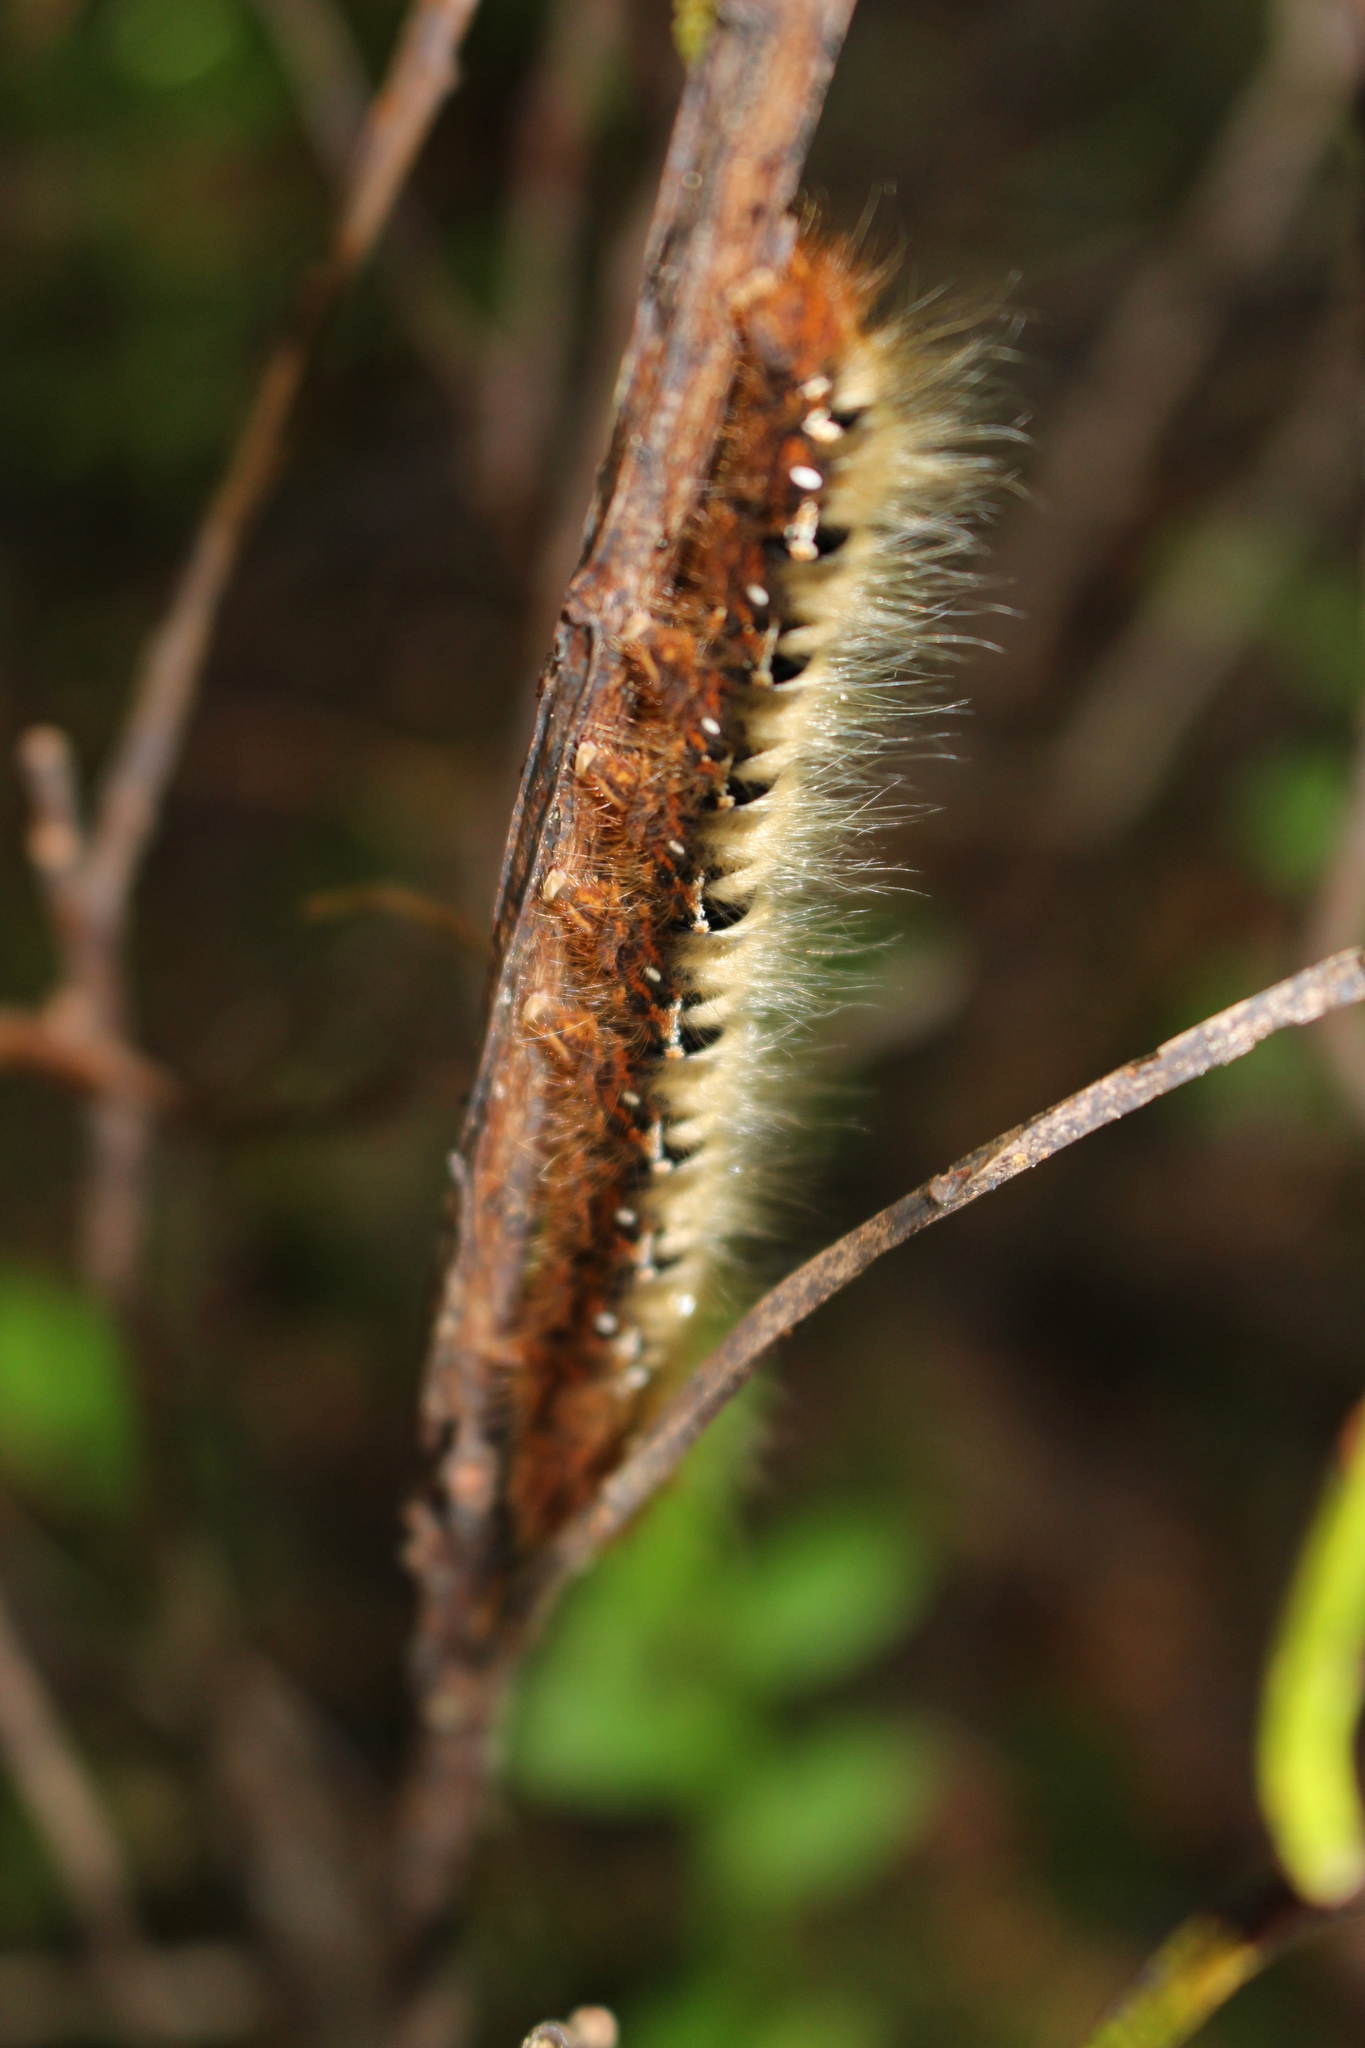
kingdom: Animalia
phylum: Arthropoda
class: Insecta
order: Lepidoptera
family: Lasiocampidae
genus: Lasiocampa
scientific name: Lasiocampa quercus
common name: Oak eggar
